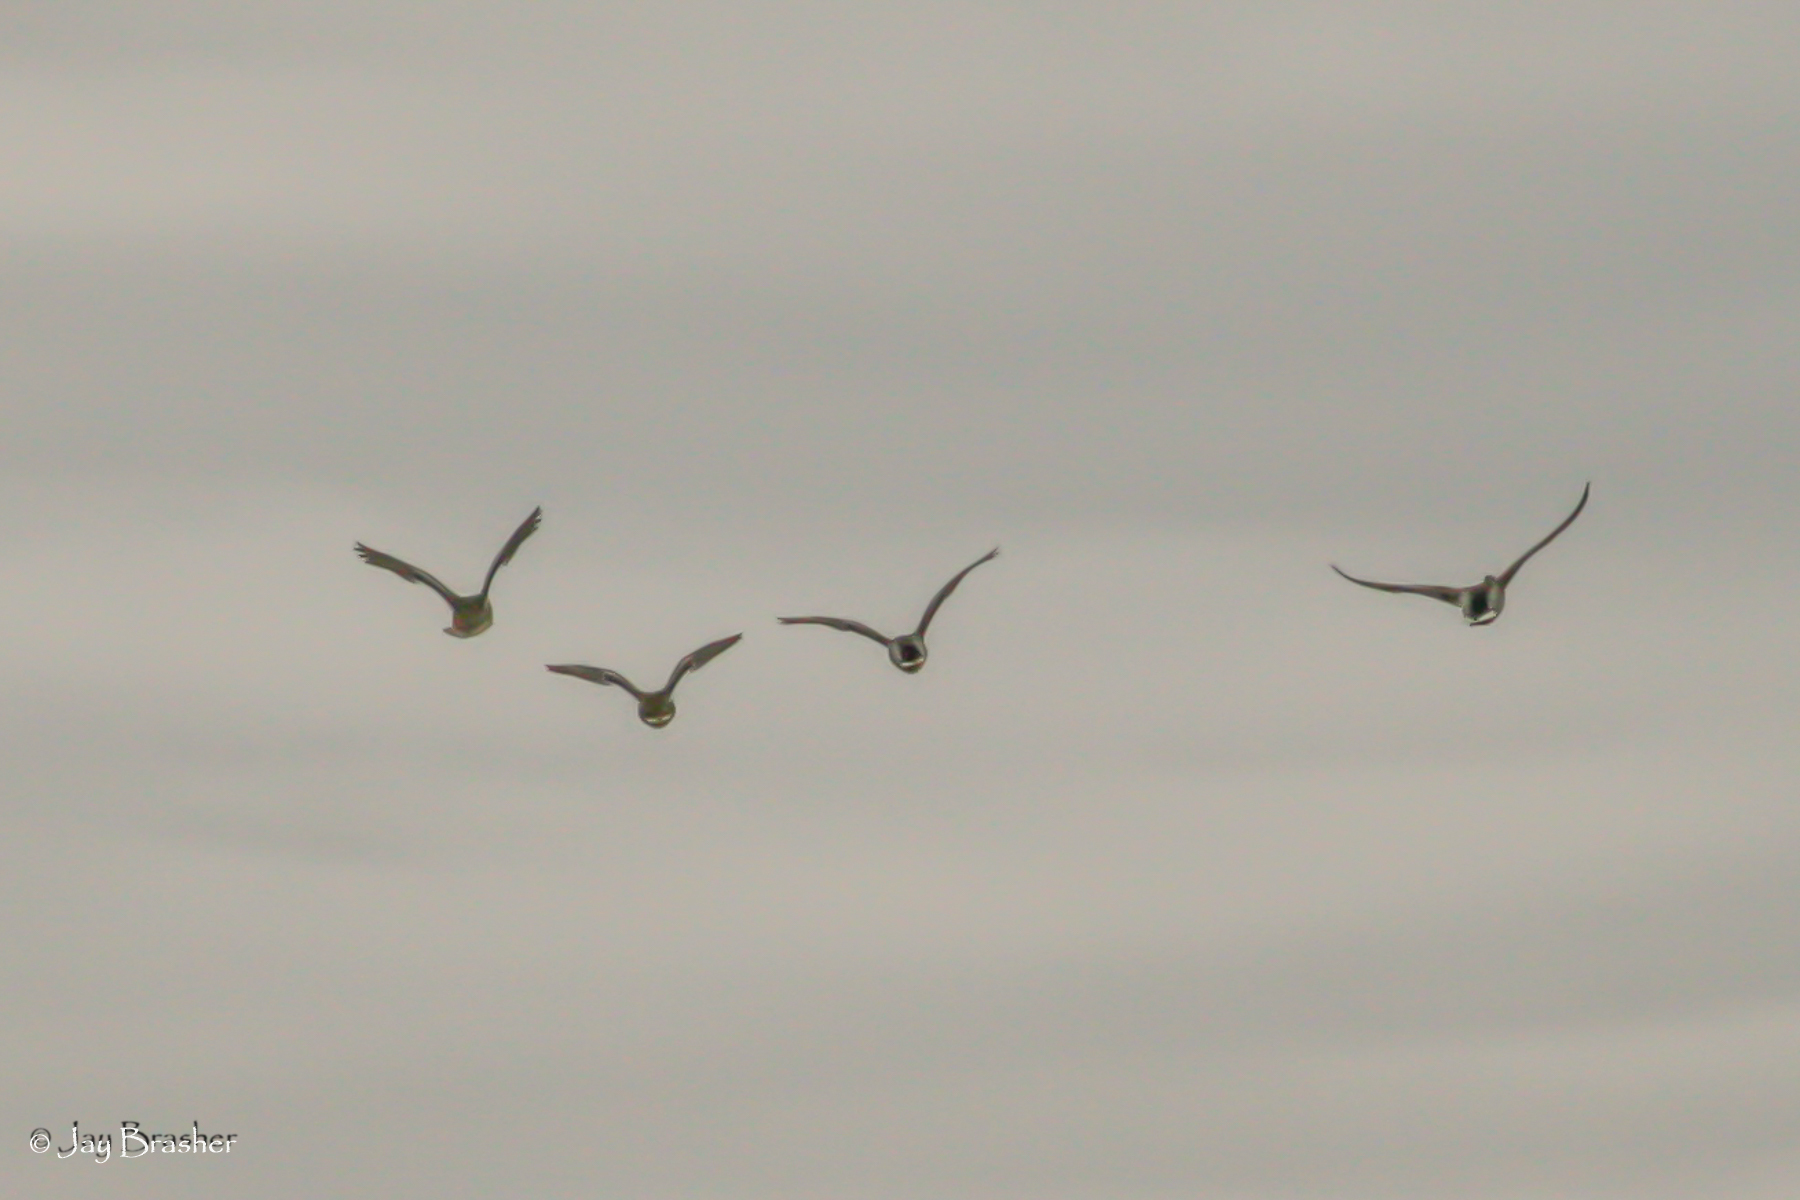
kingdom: Animalia
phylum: Chordata
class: Aves
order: Anseriformes
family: Anatidae
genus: Anas
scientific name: Anas platyrhynchos
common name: Mallard
